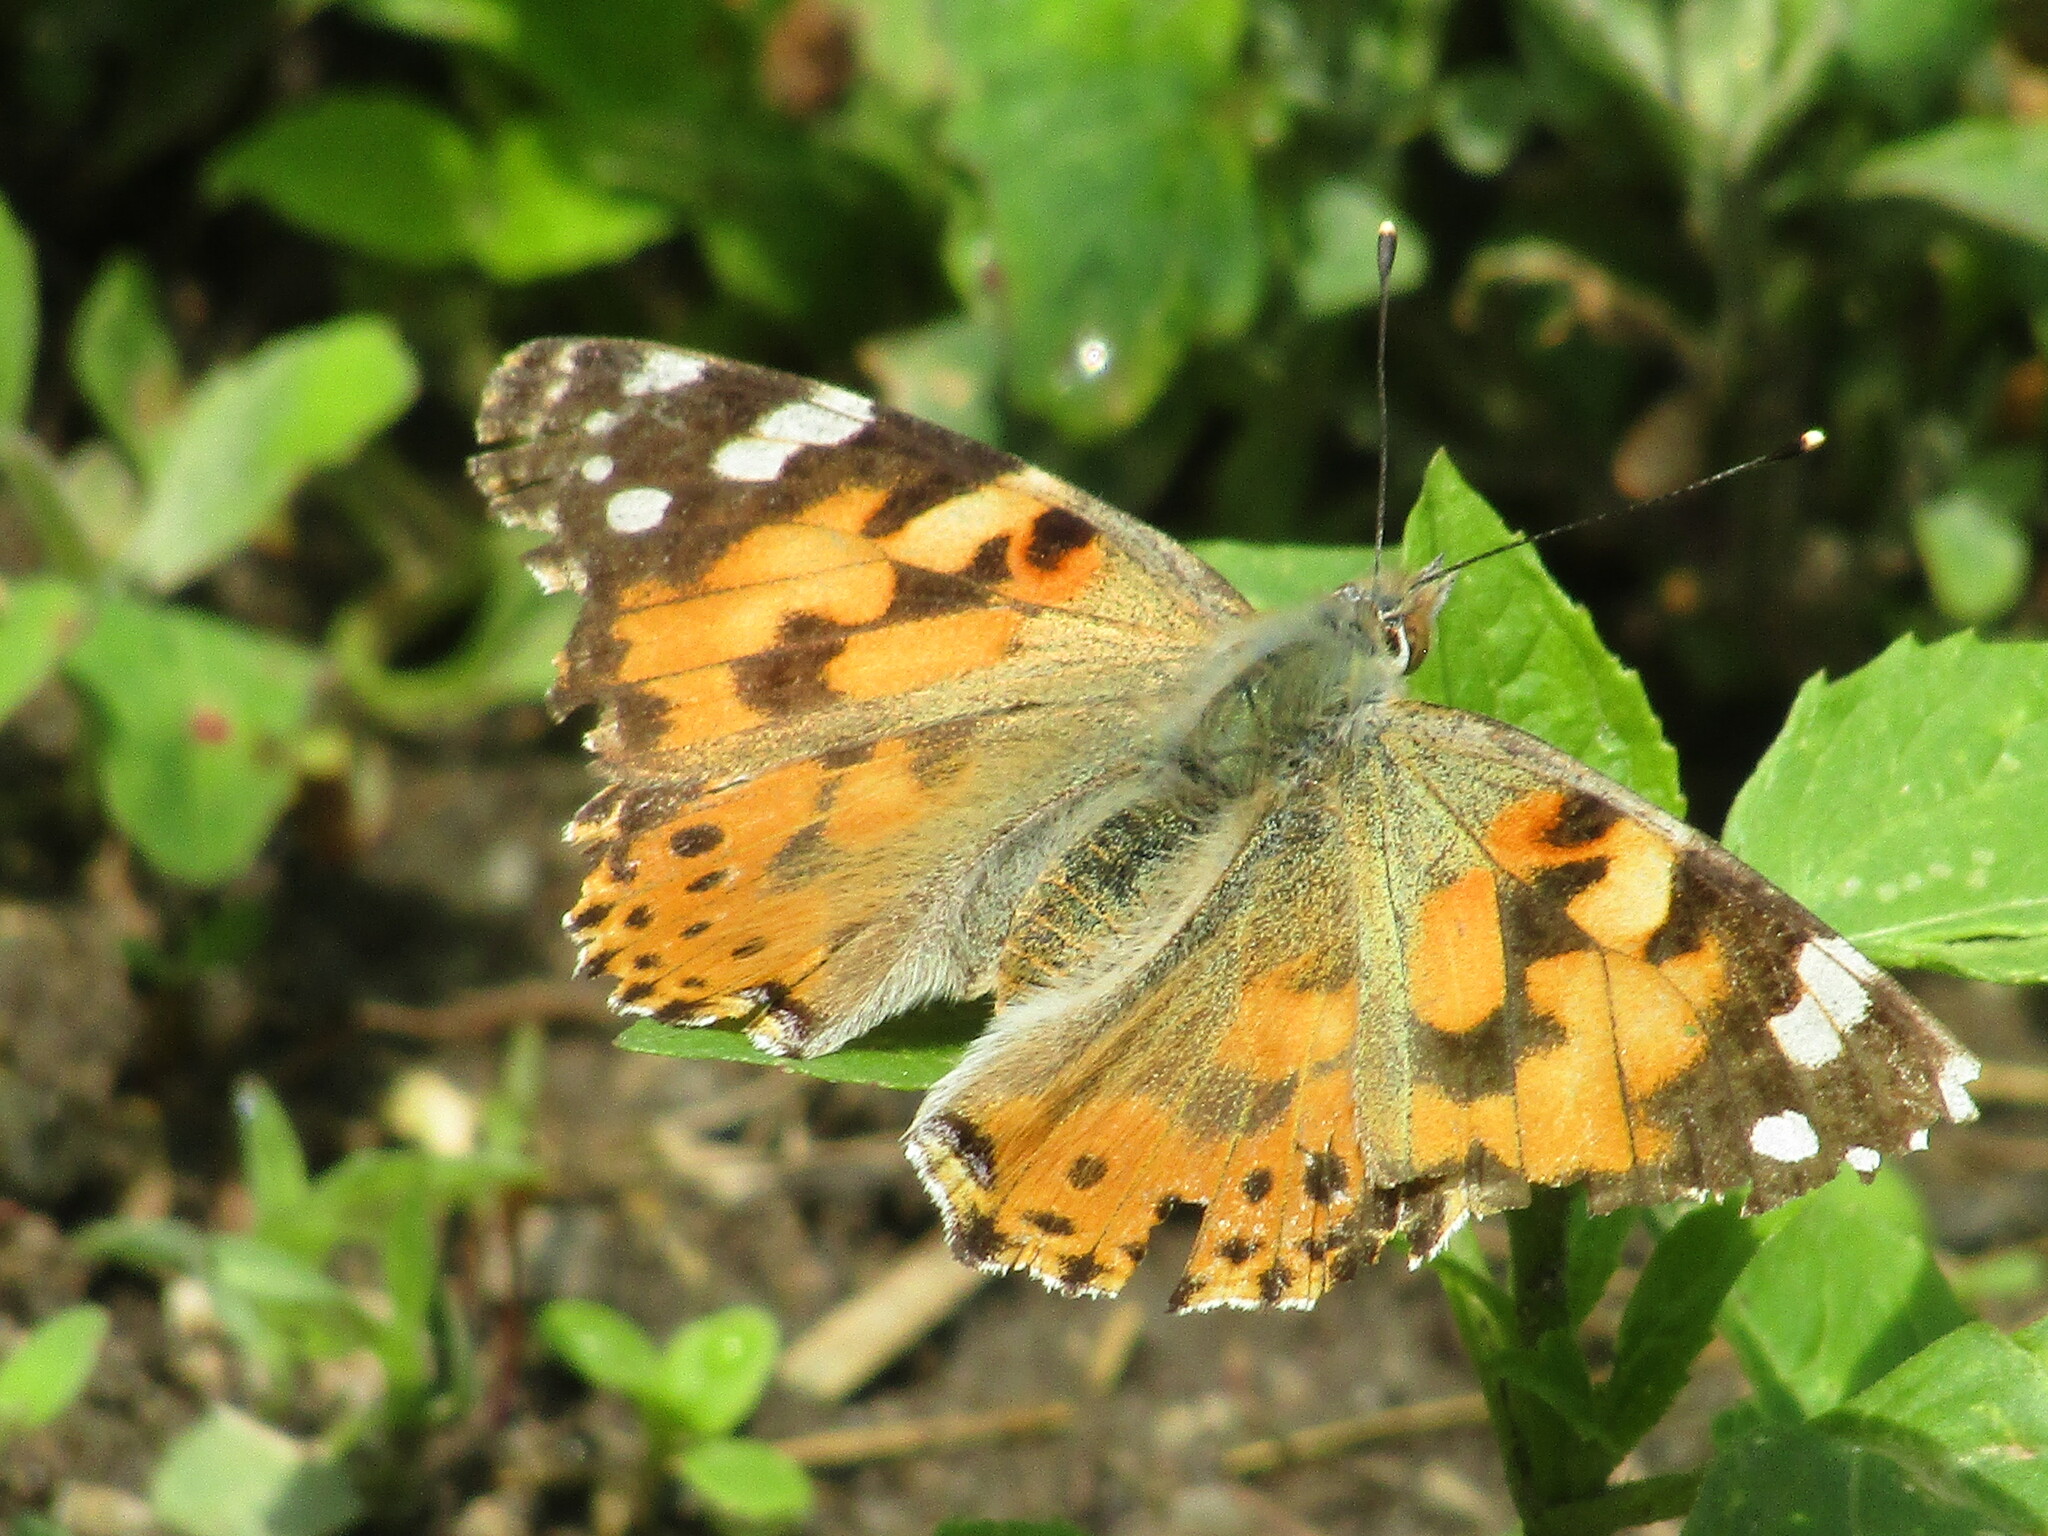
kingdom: Animalia
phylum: Arthropoda
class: Insecta
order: Lepidoptera
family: Nymphalidae
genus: Vanessa
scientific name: Vanessa cardui
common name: Painted lady
